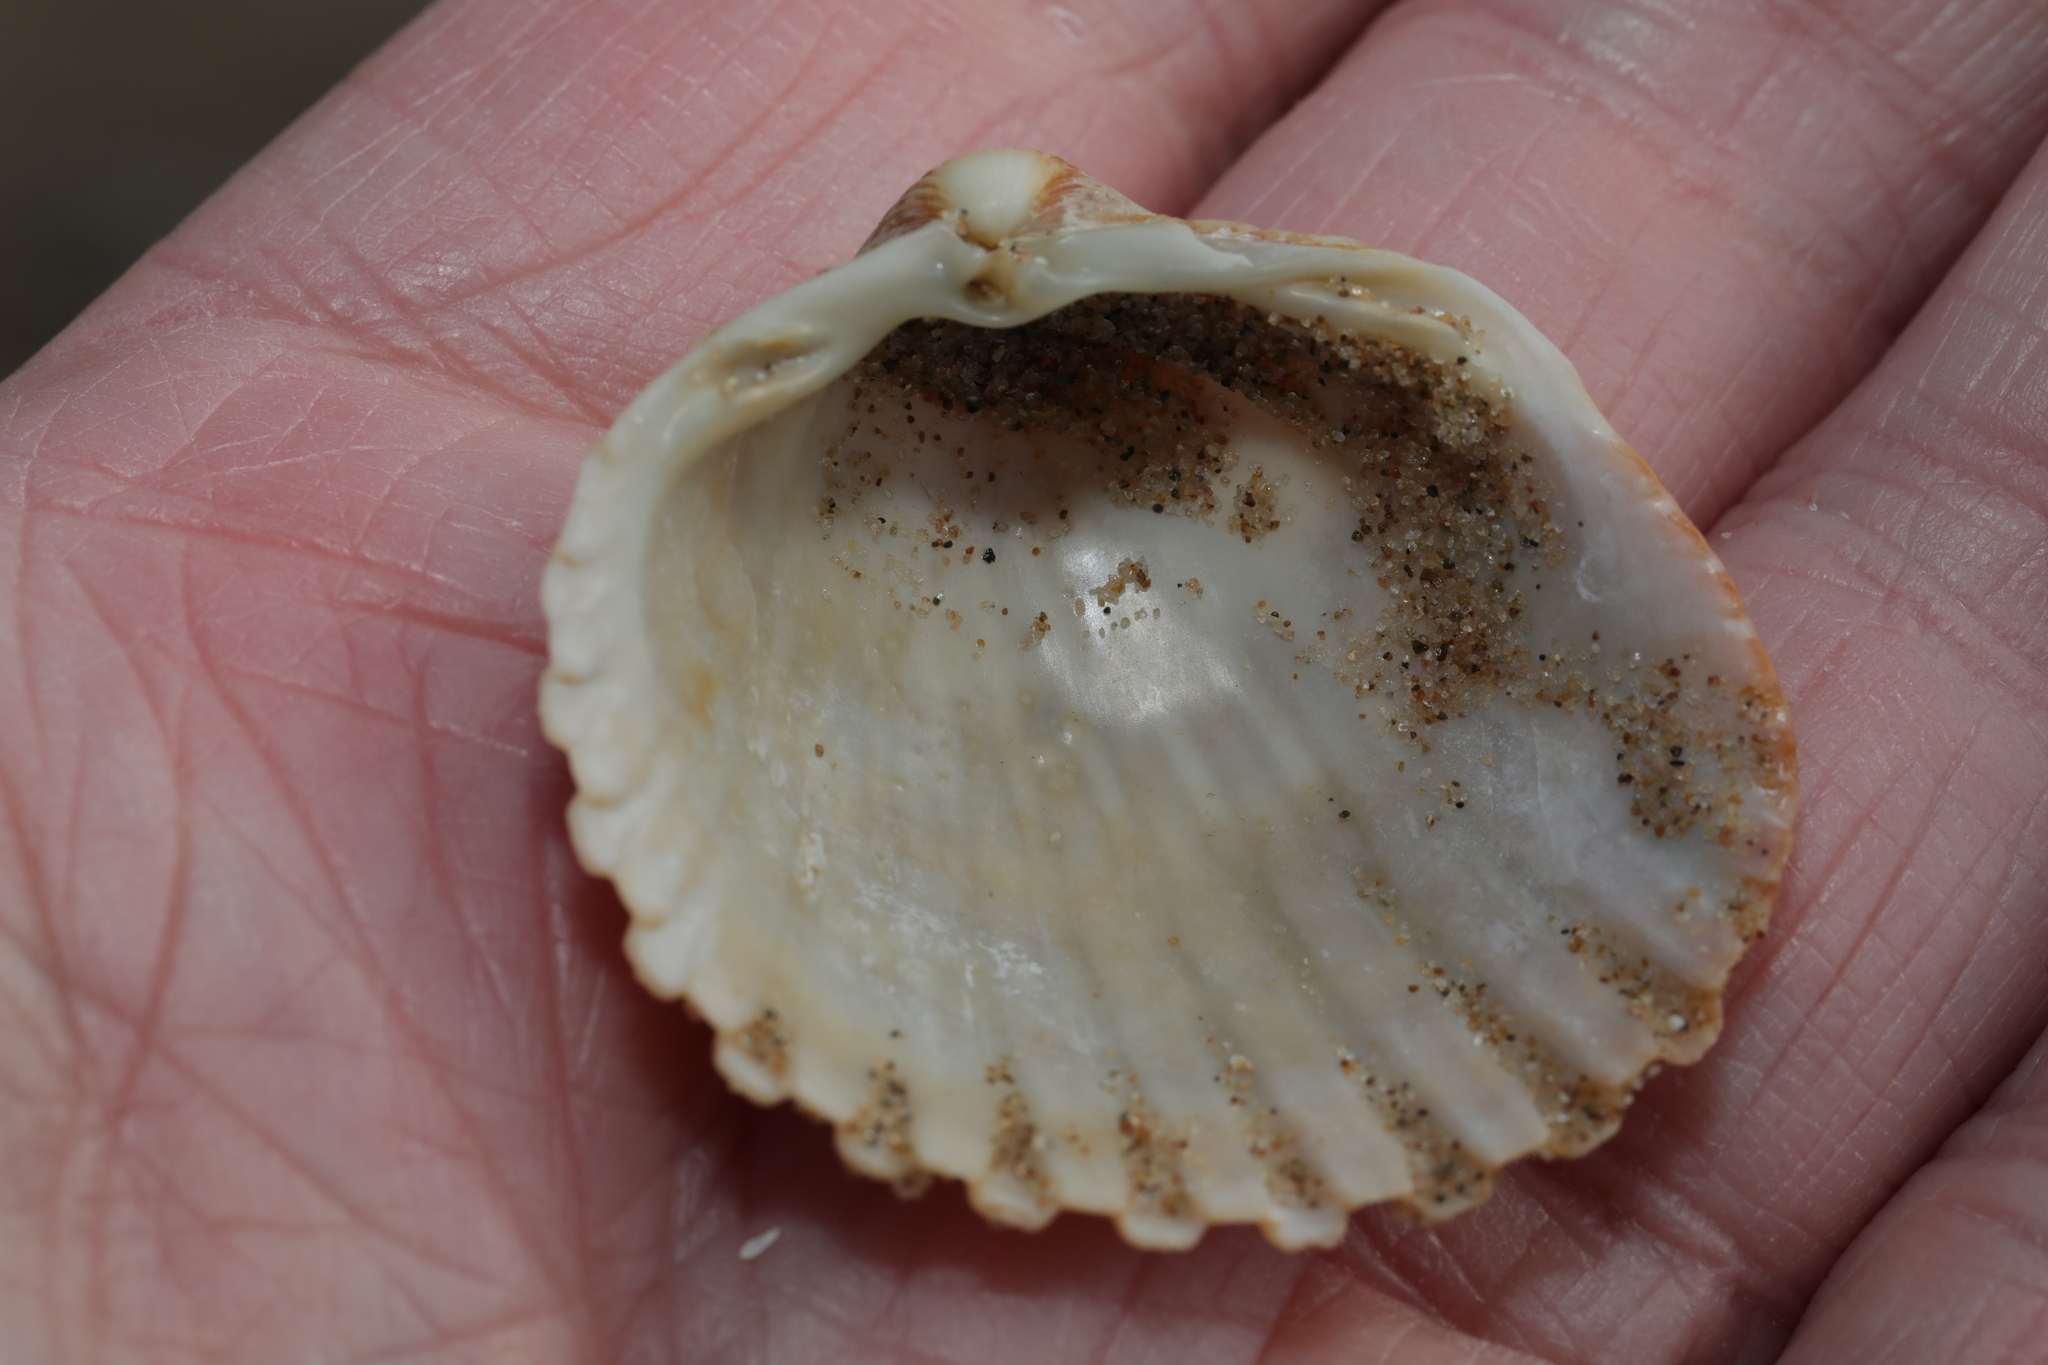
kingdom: Animalia
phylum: Mollusca
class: Bivalvia
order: Cardiida
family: Cardiidae
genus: Acanthocardia
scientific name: Acanthocardia echinata
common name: Prickly cockle
